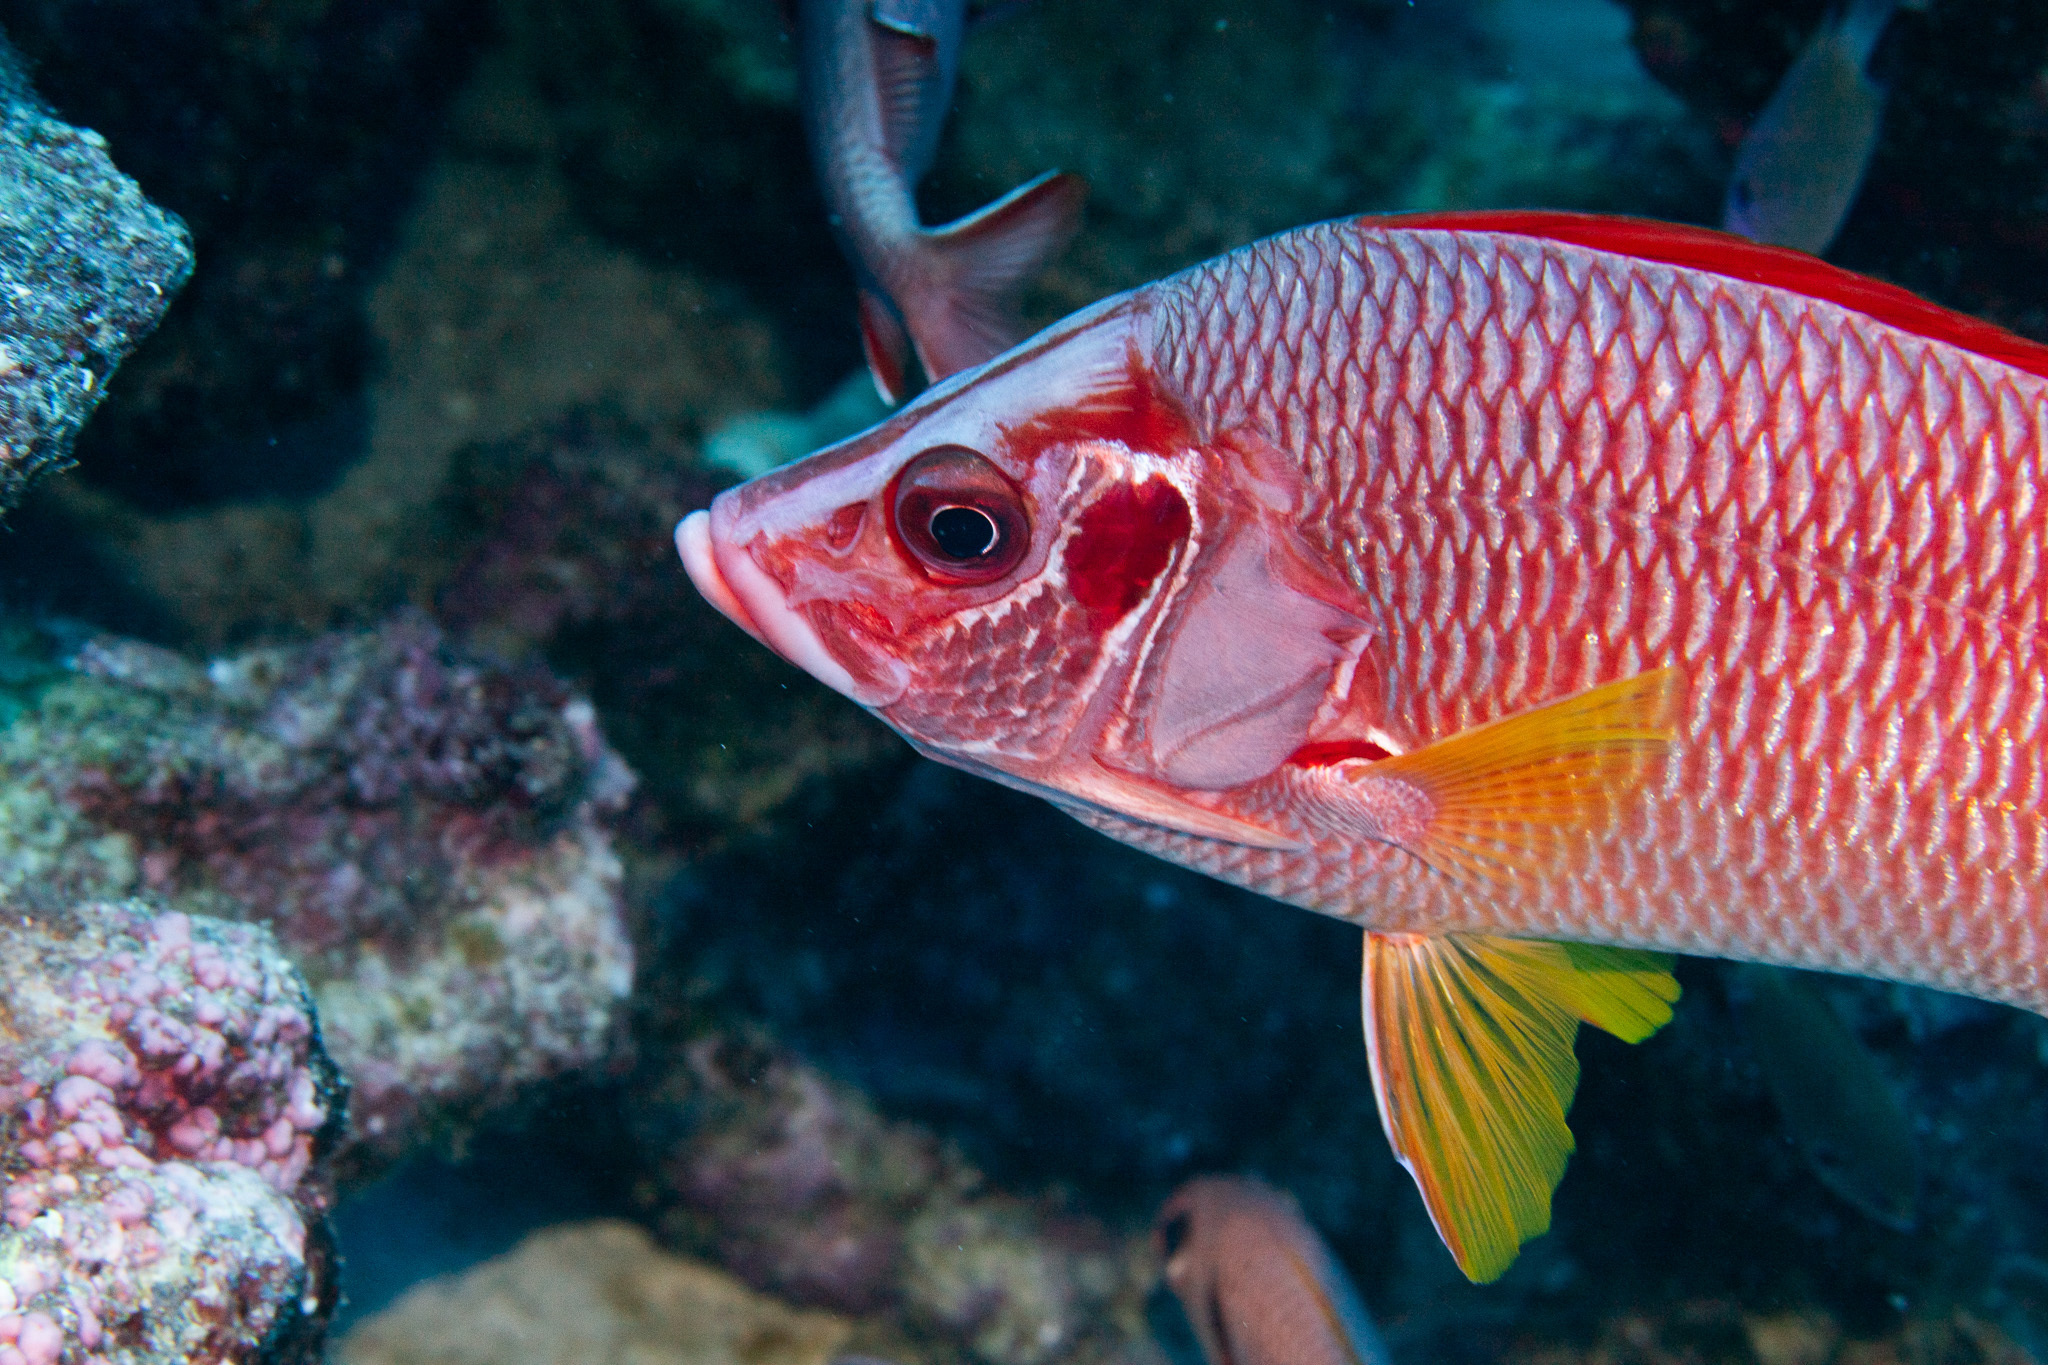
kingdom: Animalia
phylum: Chordata
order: Beryciformes
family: Holocentridae
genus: Sargocentron
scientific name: Sargocentron spiniferum
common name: Giant squirrelfish
